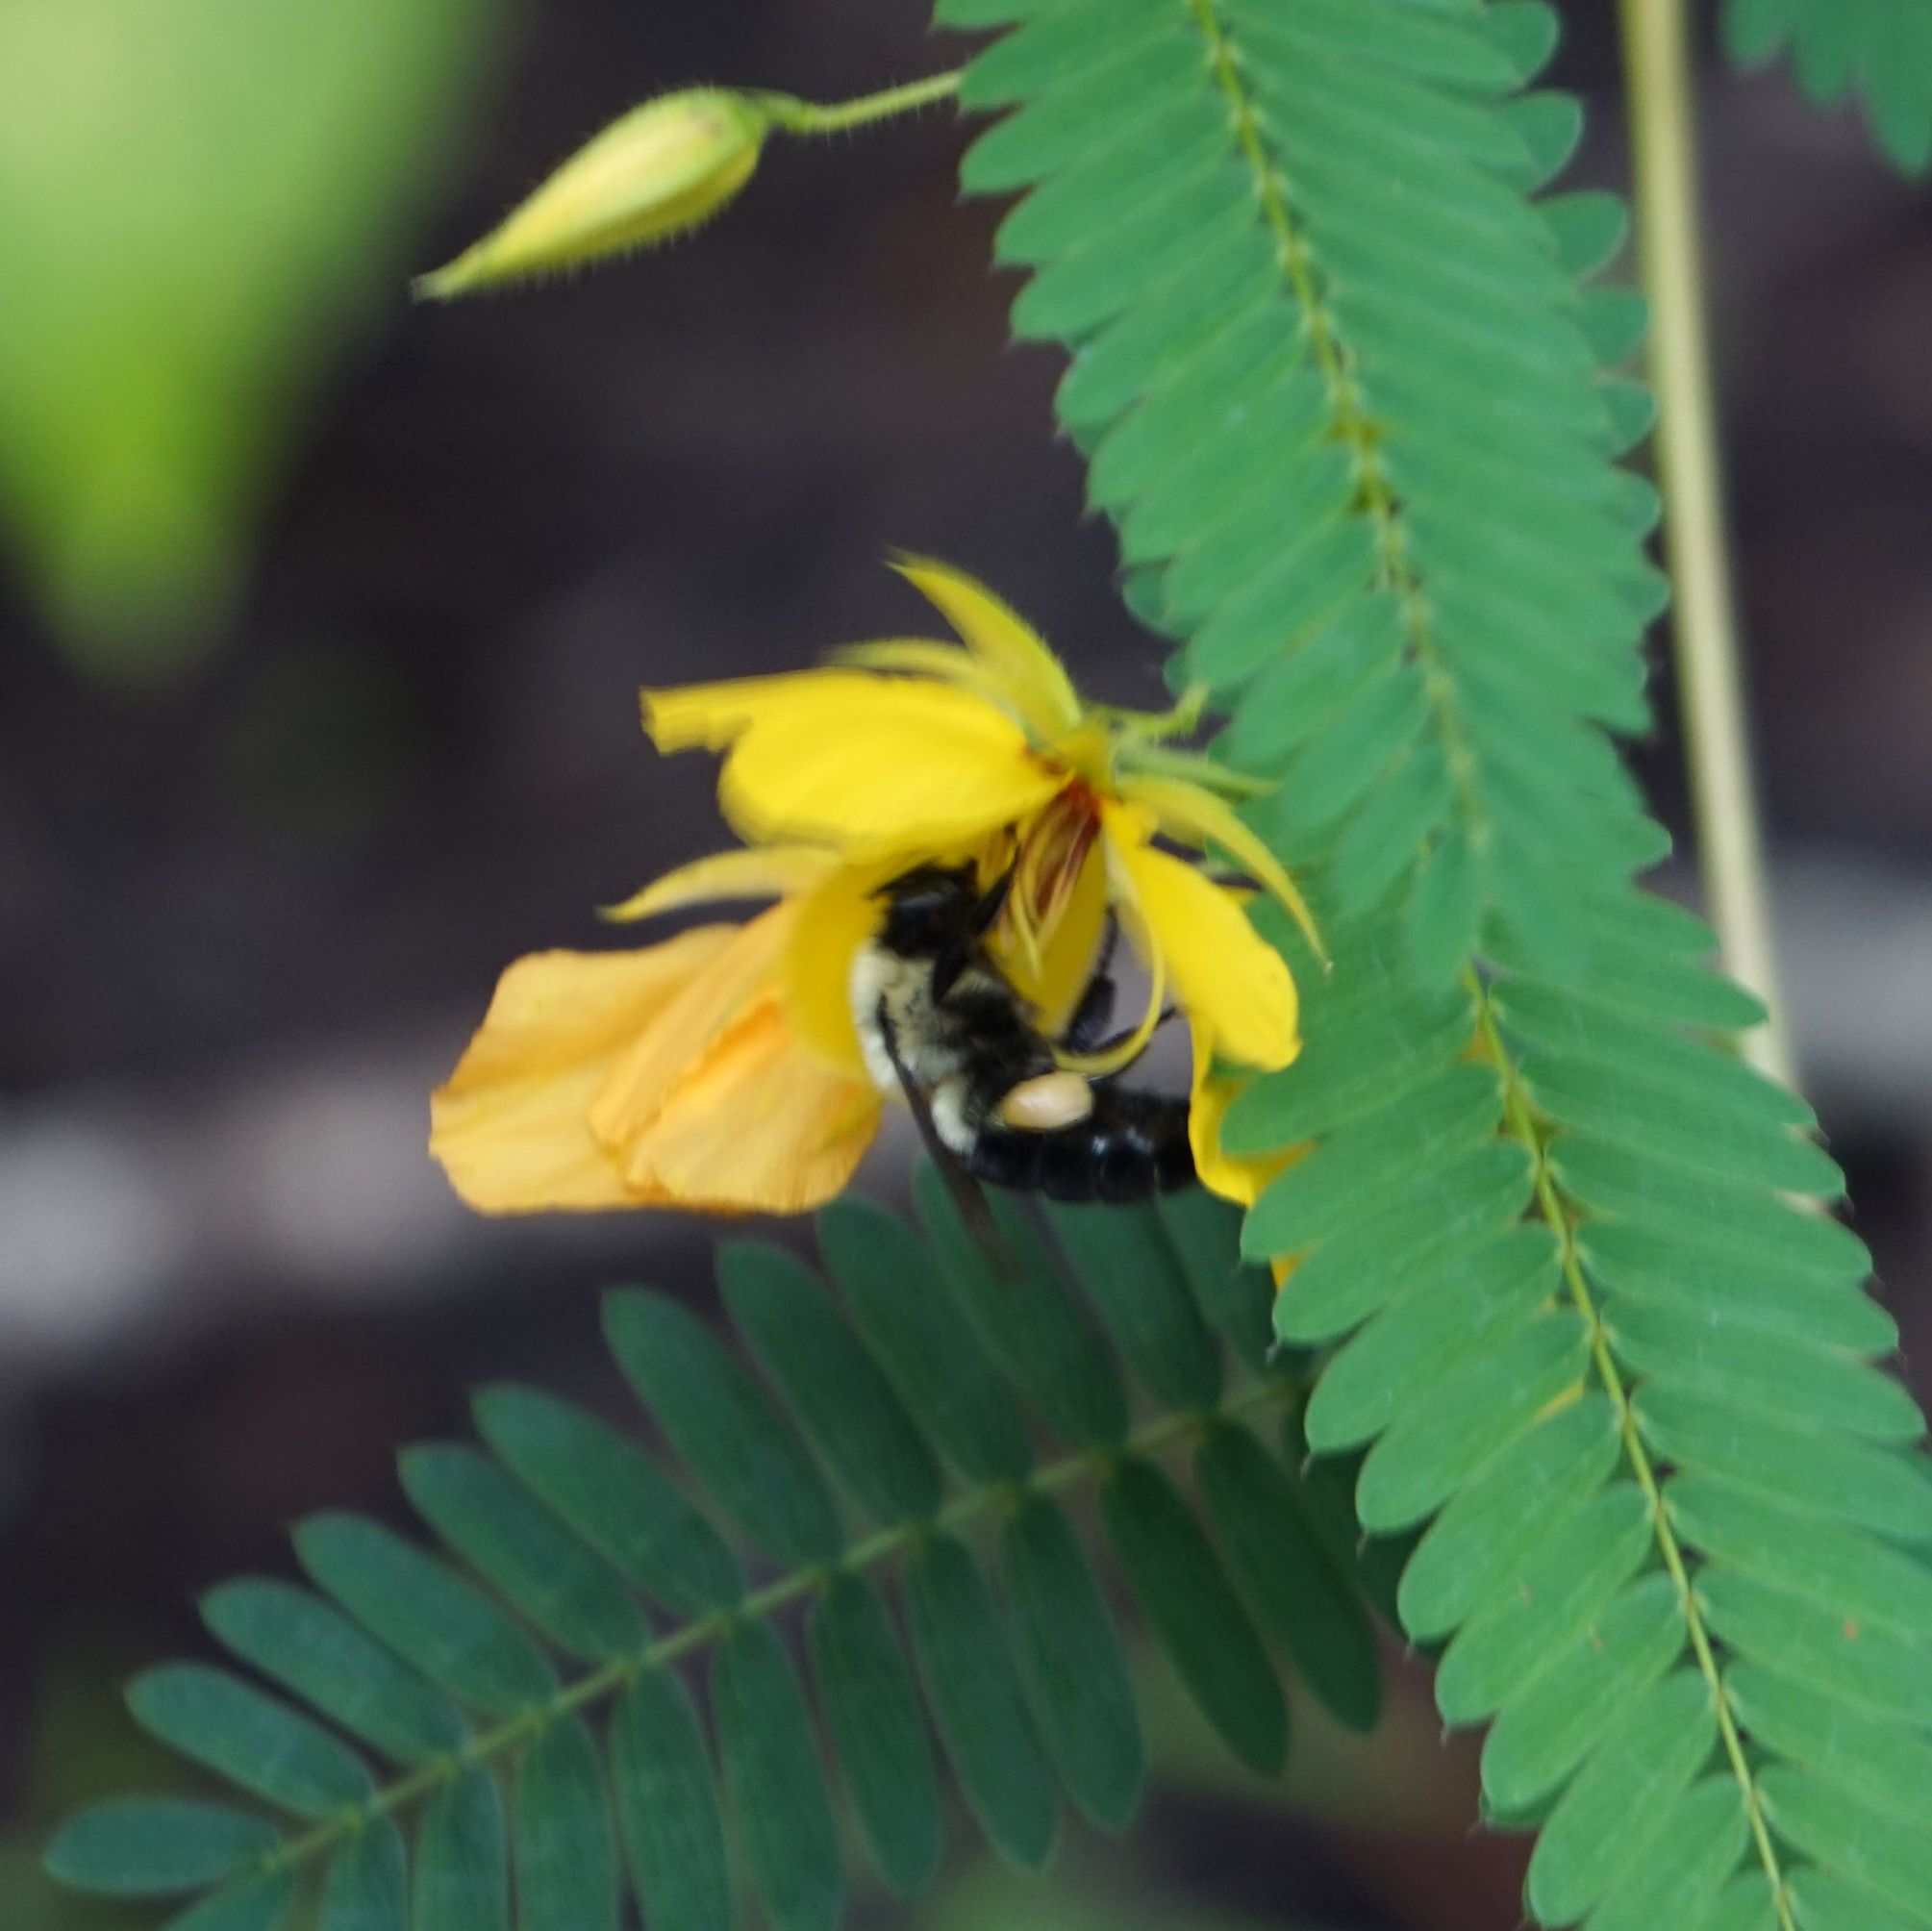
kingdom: Animalia
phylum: Arthropoda
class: Insecta
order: Hymenoptera
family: Apidae
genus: Bombus
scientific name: Bombus impatiens
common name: Common eastern bumble bee
